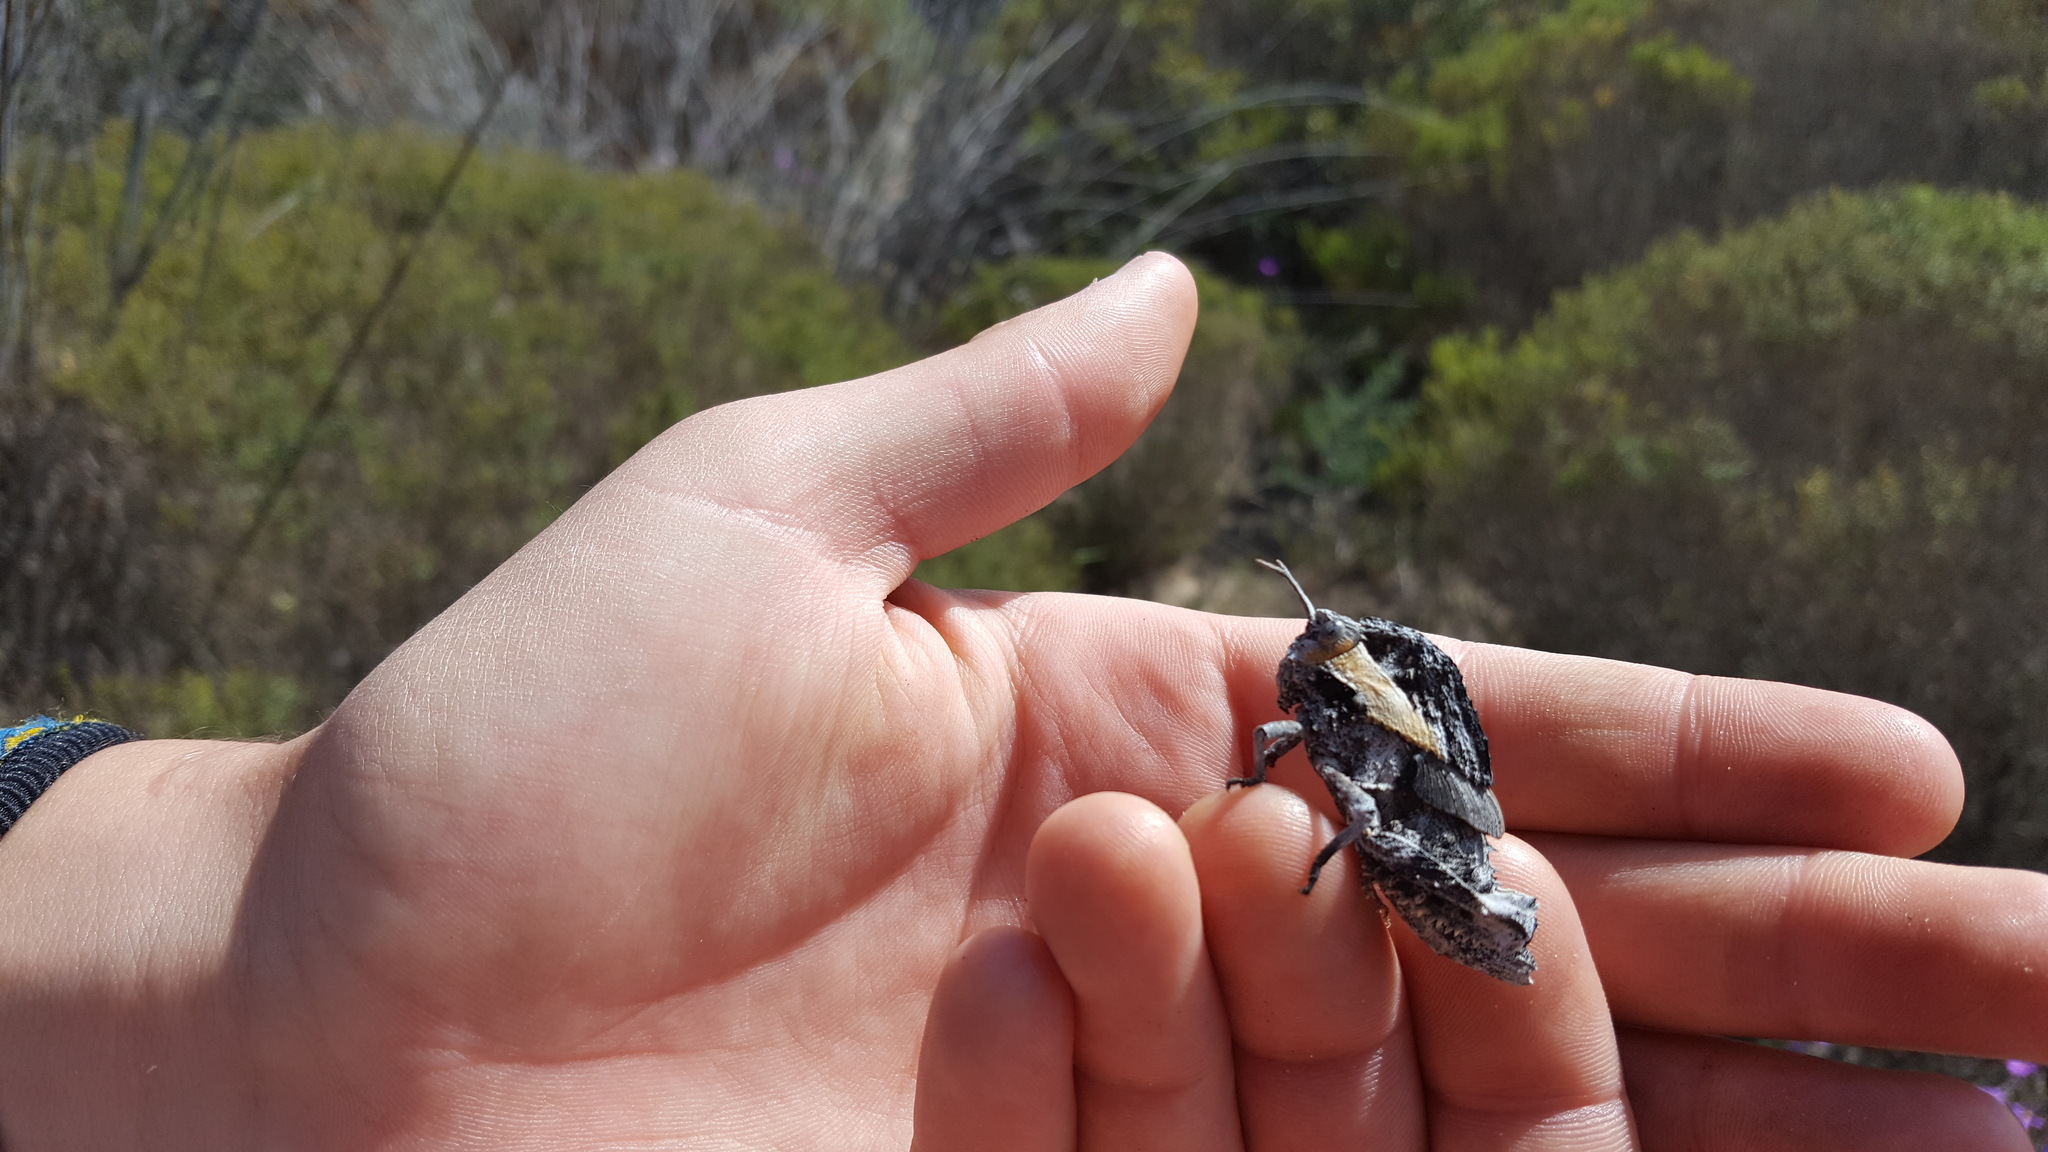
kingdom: Animalia
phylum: Arthropoda
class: Insecta
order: Orthoptera
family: Pamphagidae
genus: Porthetis
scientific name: Porthetis carinata
